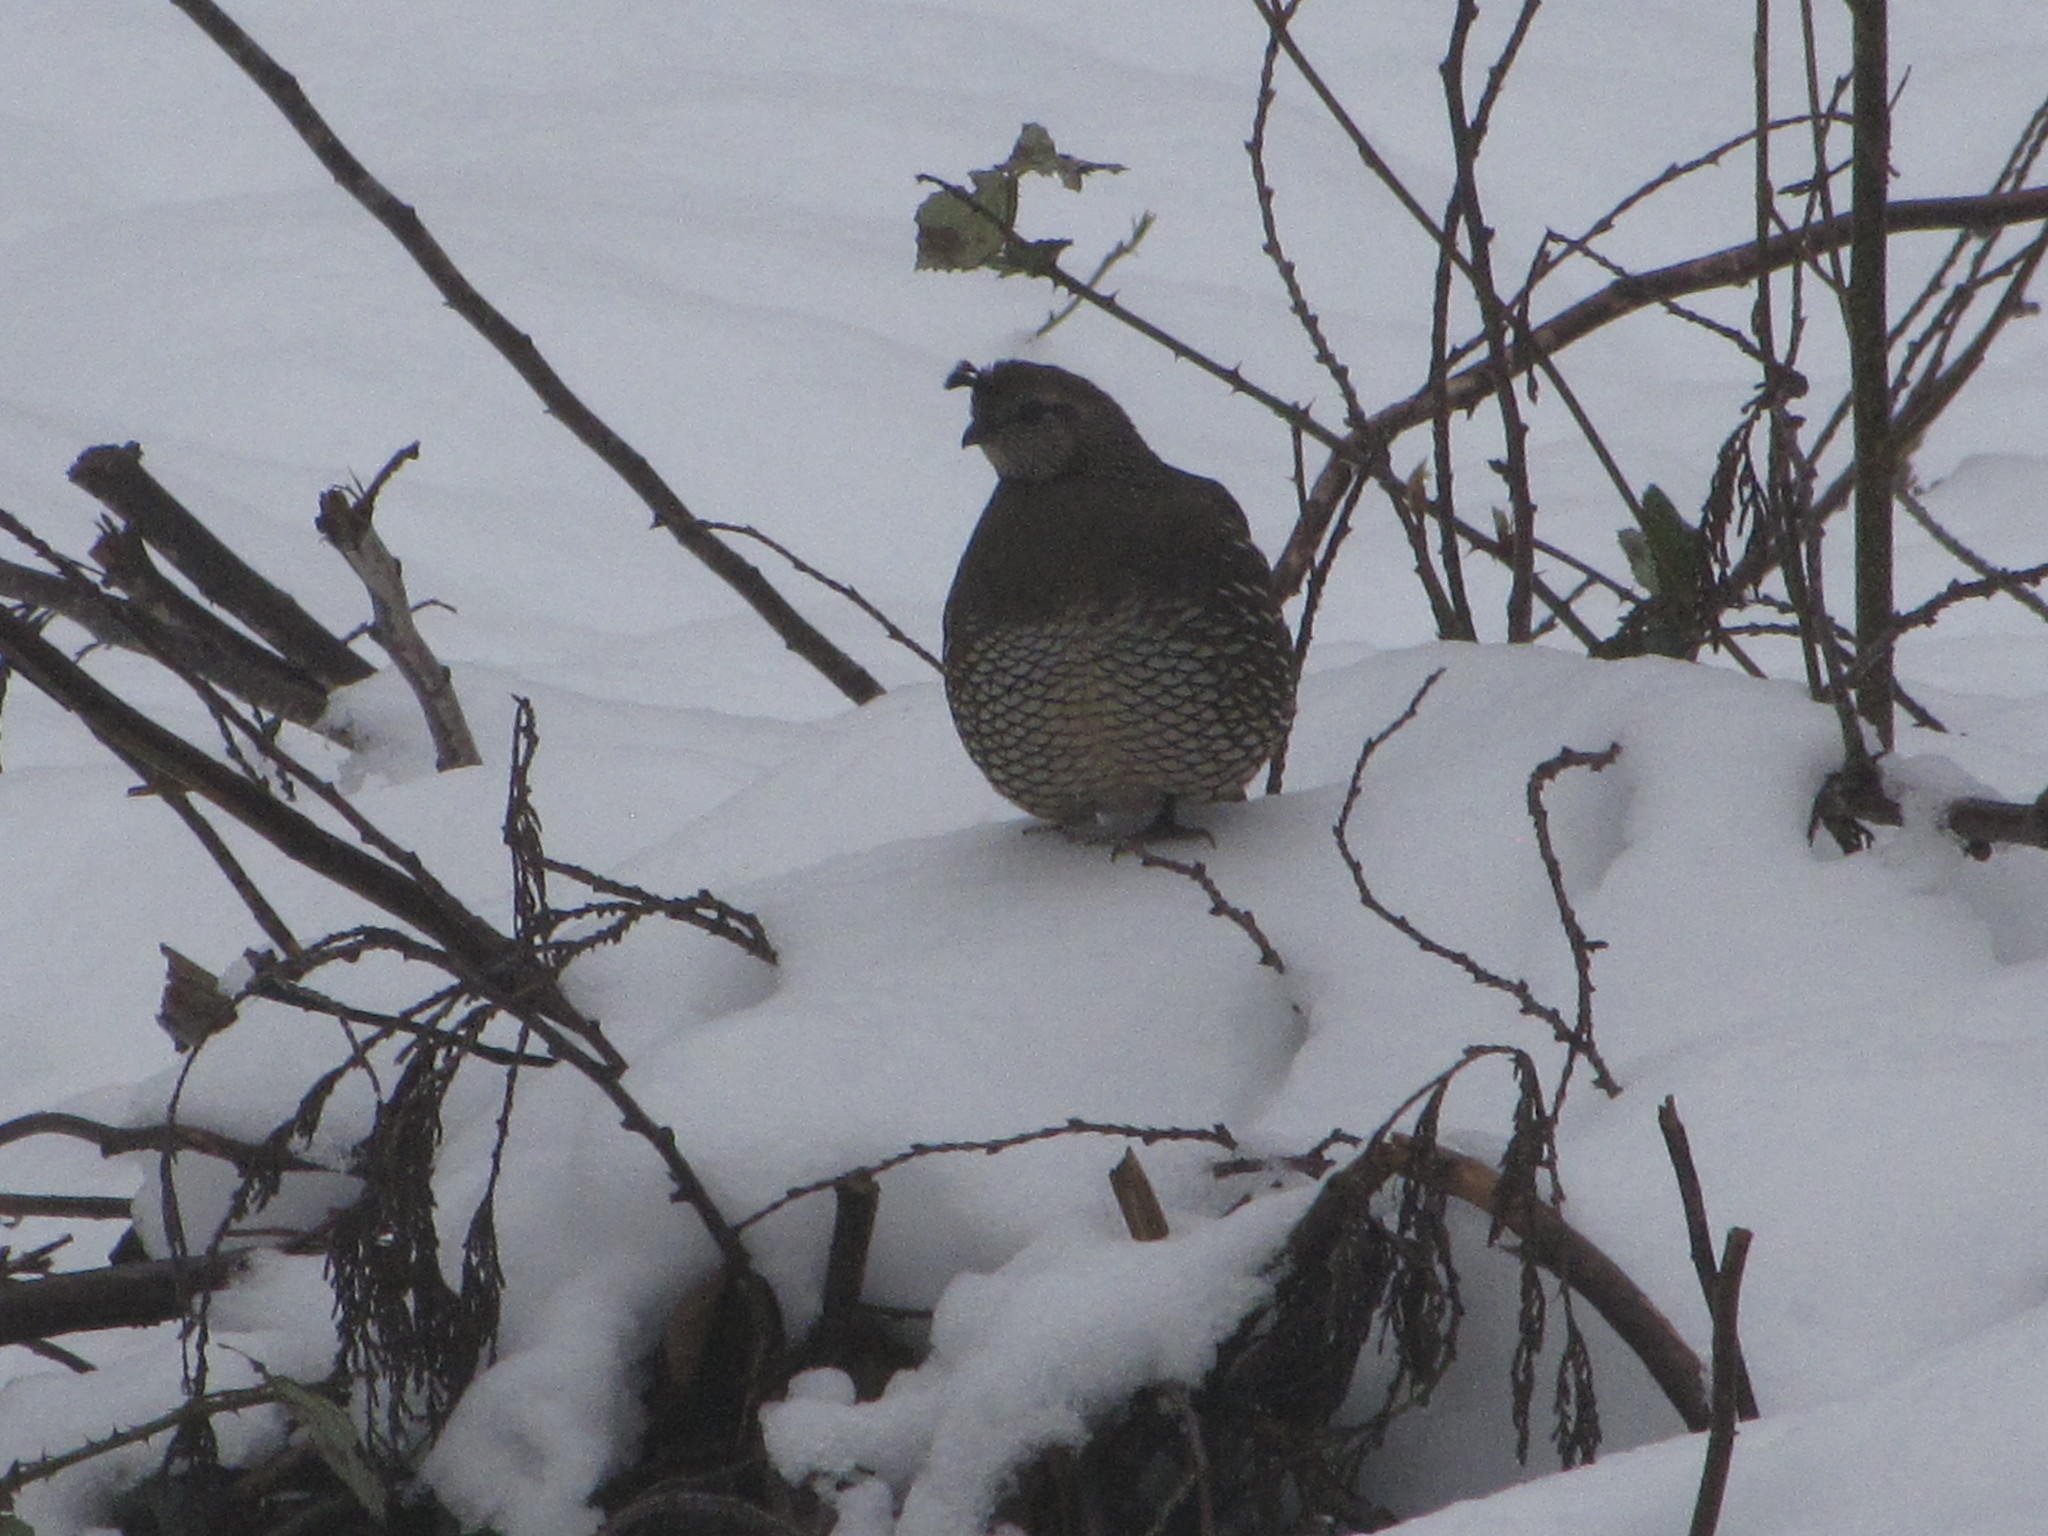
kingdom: Animalia
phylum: Chordata
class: Aves
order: Galliformes
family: Odontophoridae
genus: Callipepla
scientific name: Callipepla californica
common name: California quail
